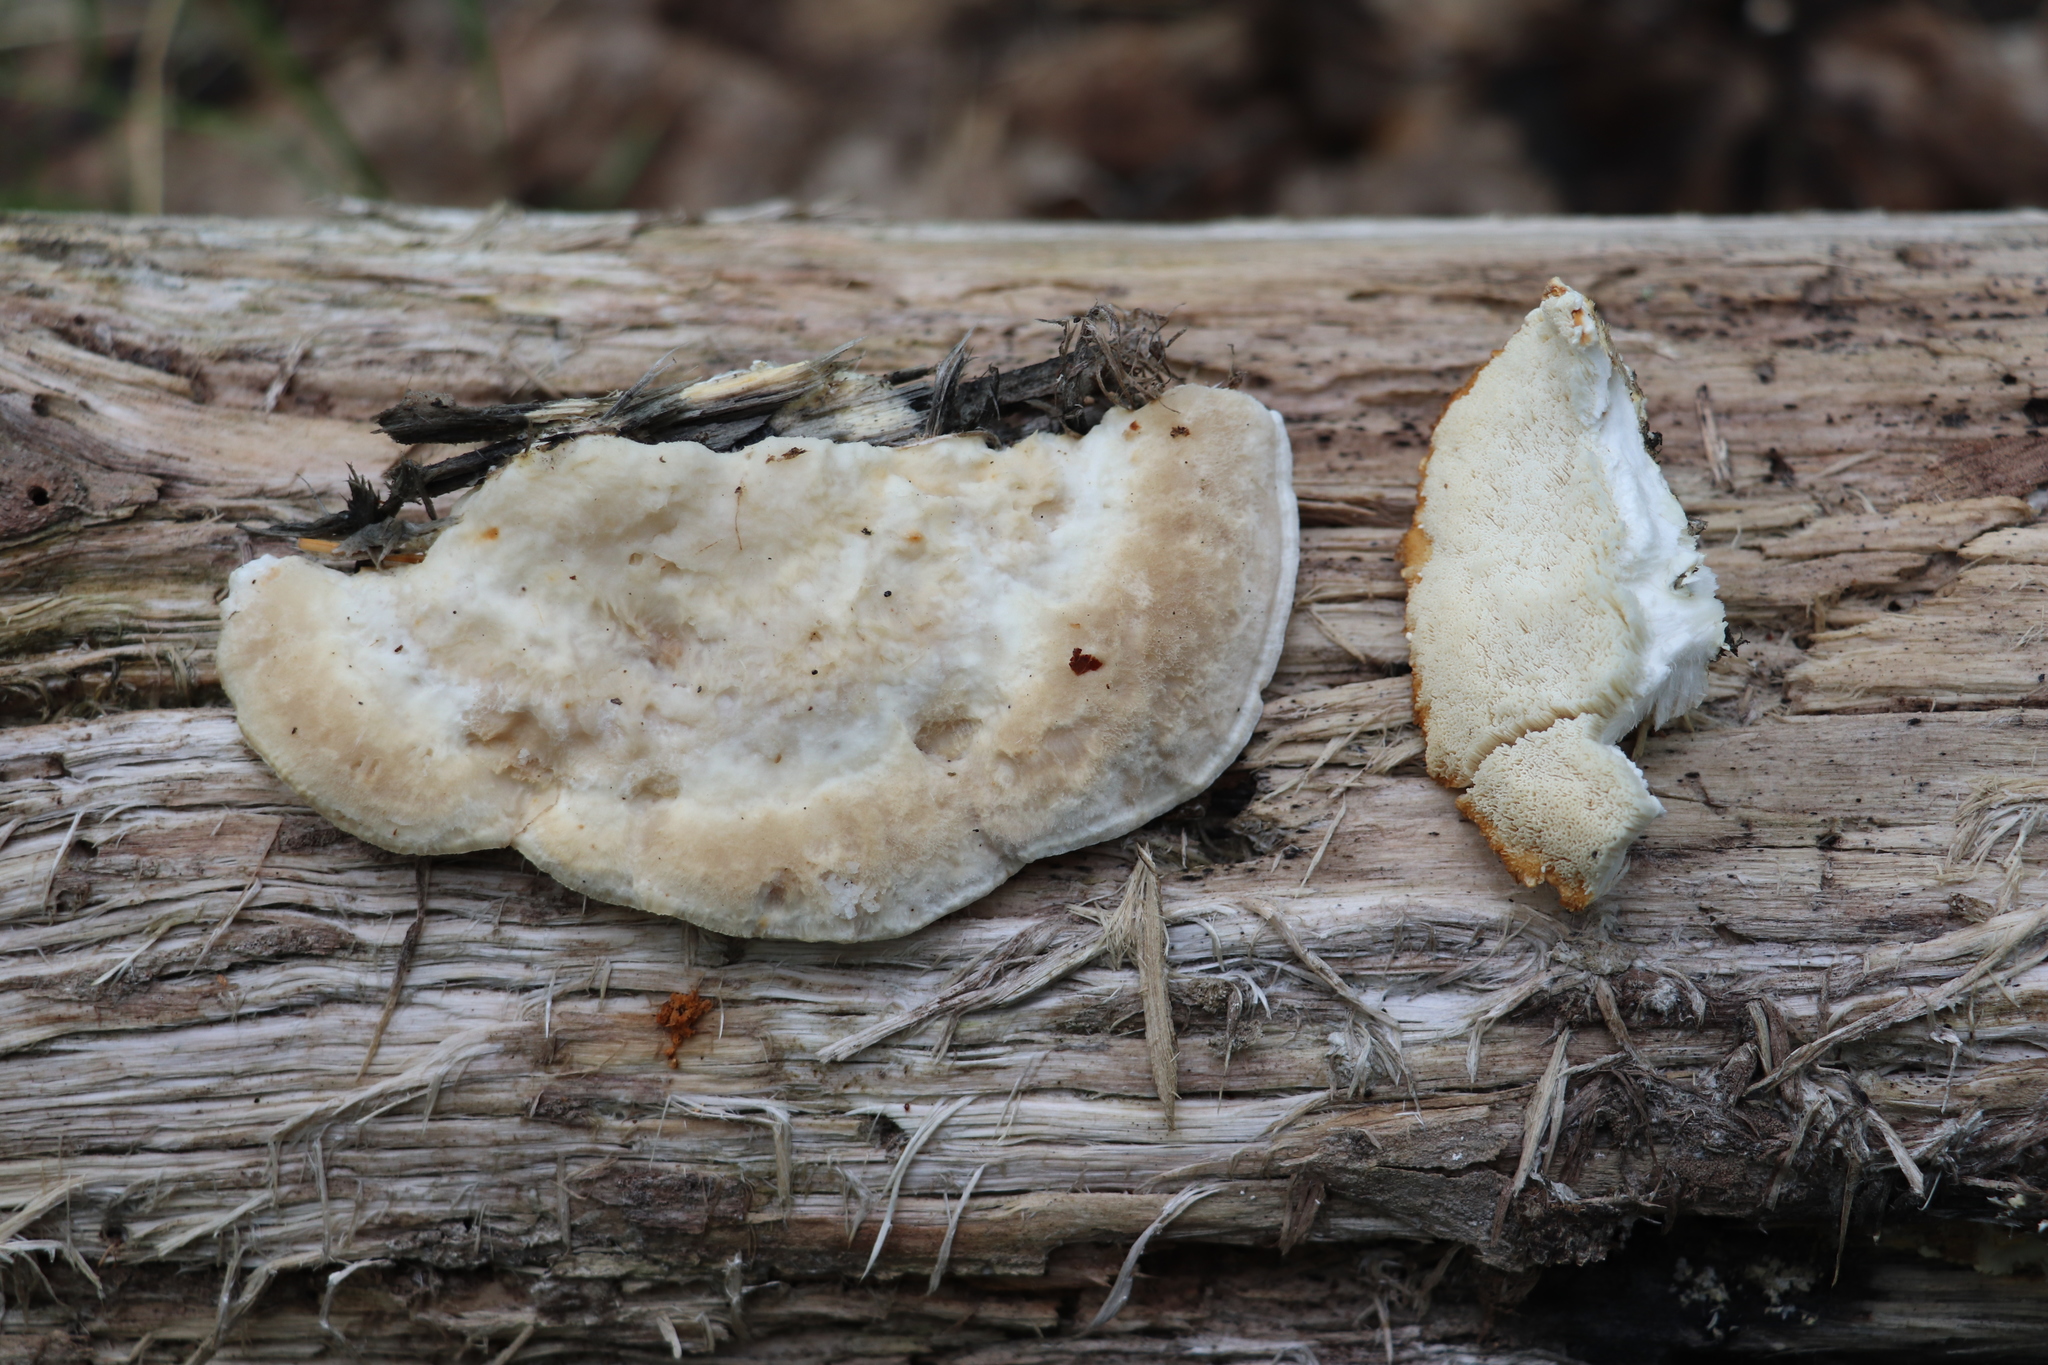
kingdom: Fungi
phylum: Basidiomycota
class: Agaricomycetes
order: Polyporales
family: Polyporaceae
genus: Trametes
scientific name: Trametes suaveolens
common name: Fragrant bracket
